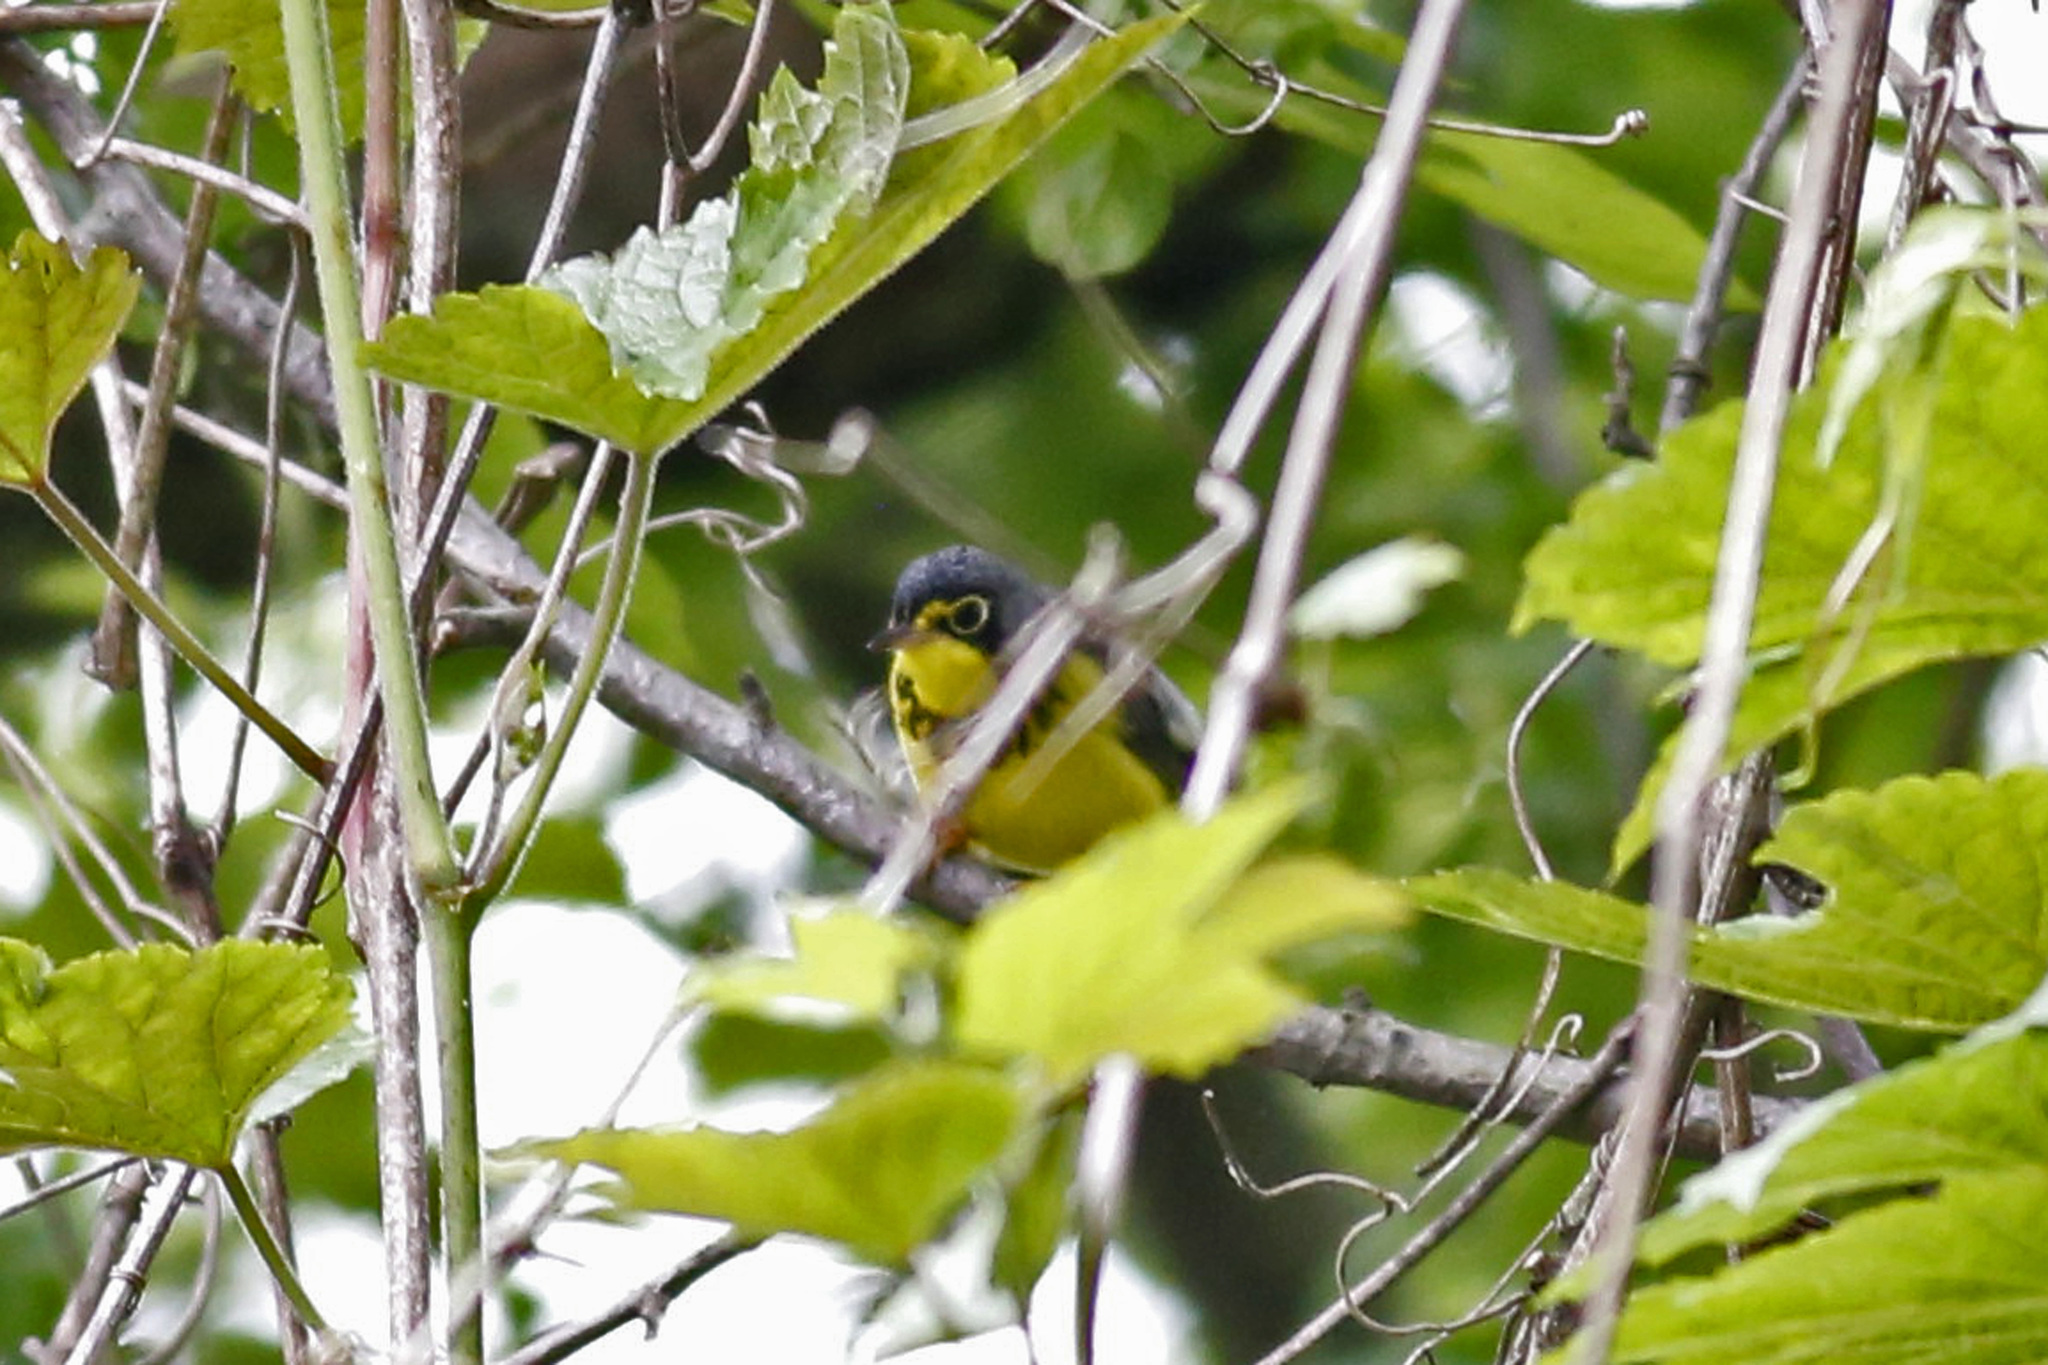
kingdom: Animalia
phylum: Chordata
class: Aves
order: Passeriformes
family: Parulidae
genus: Cardellina
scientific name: Cardellina canadensis
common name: Canada warbler
